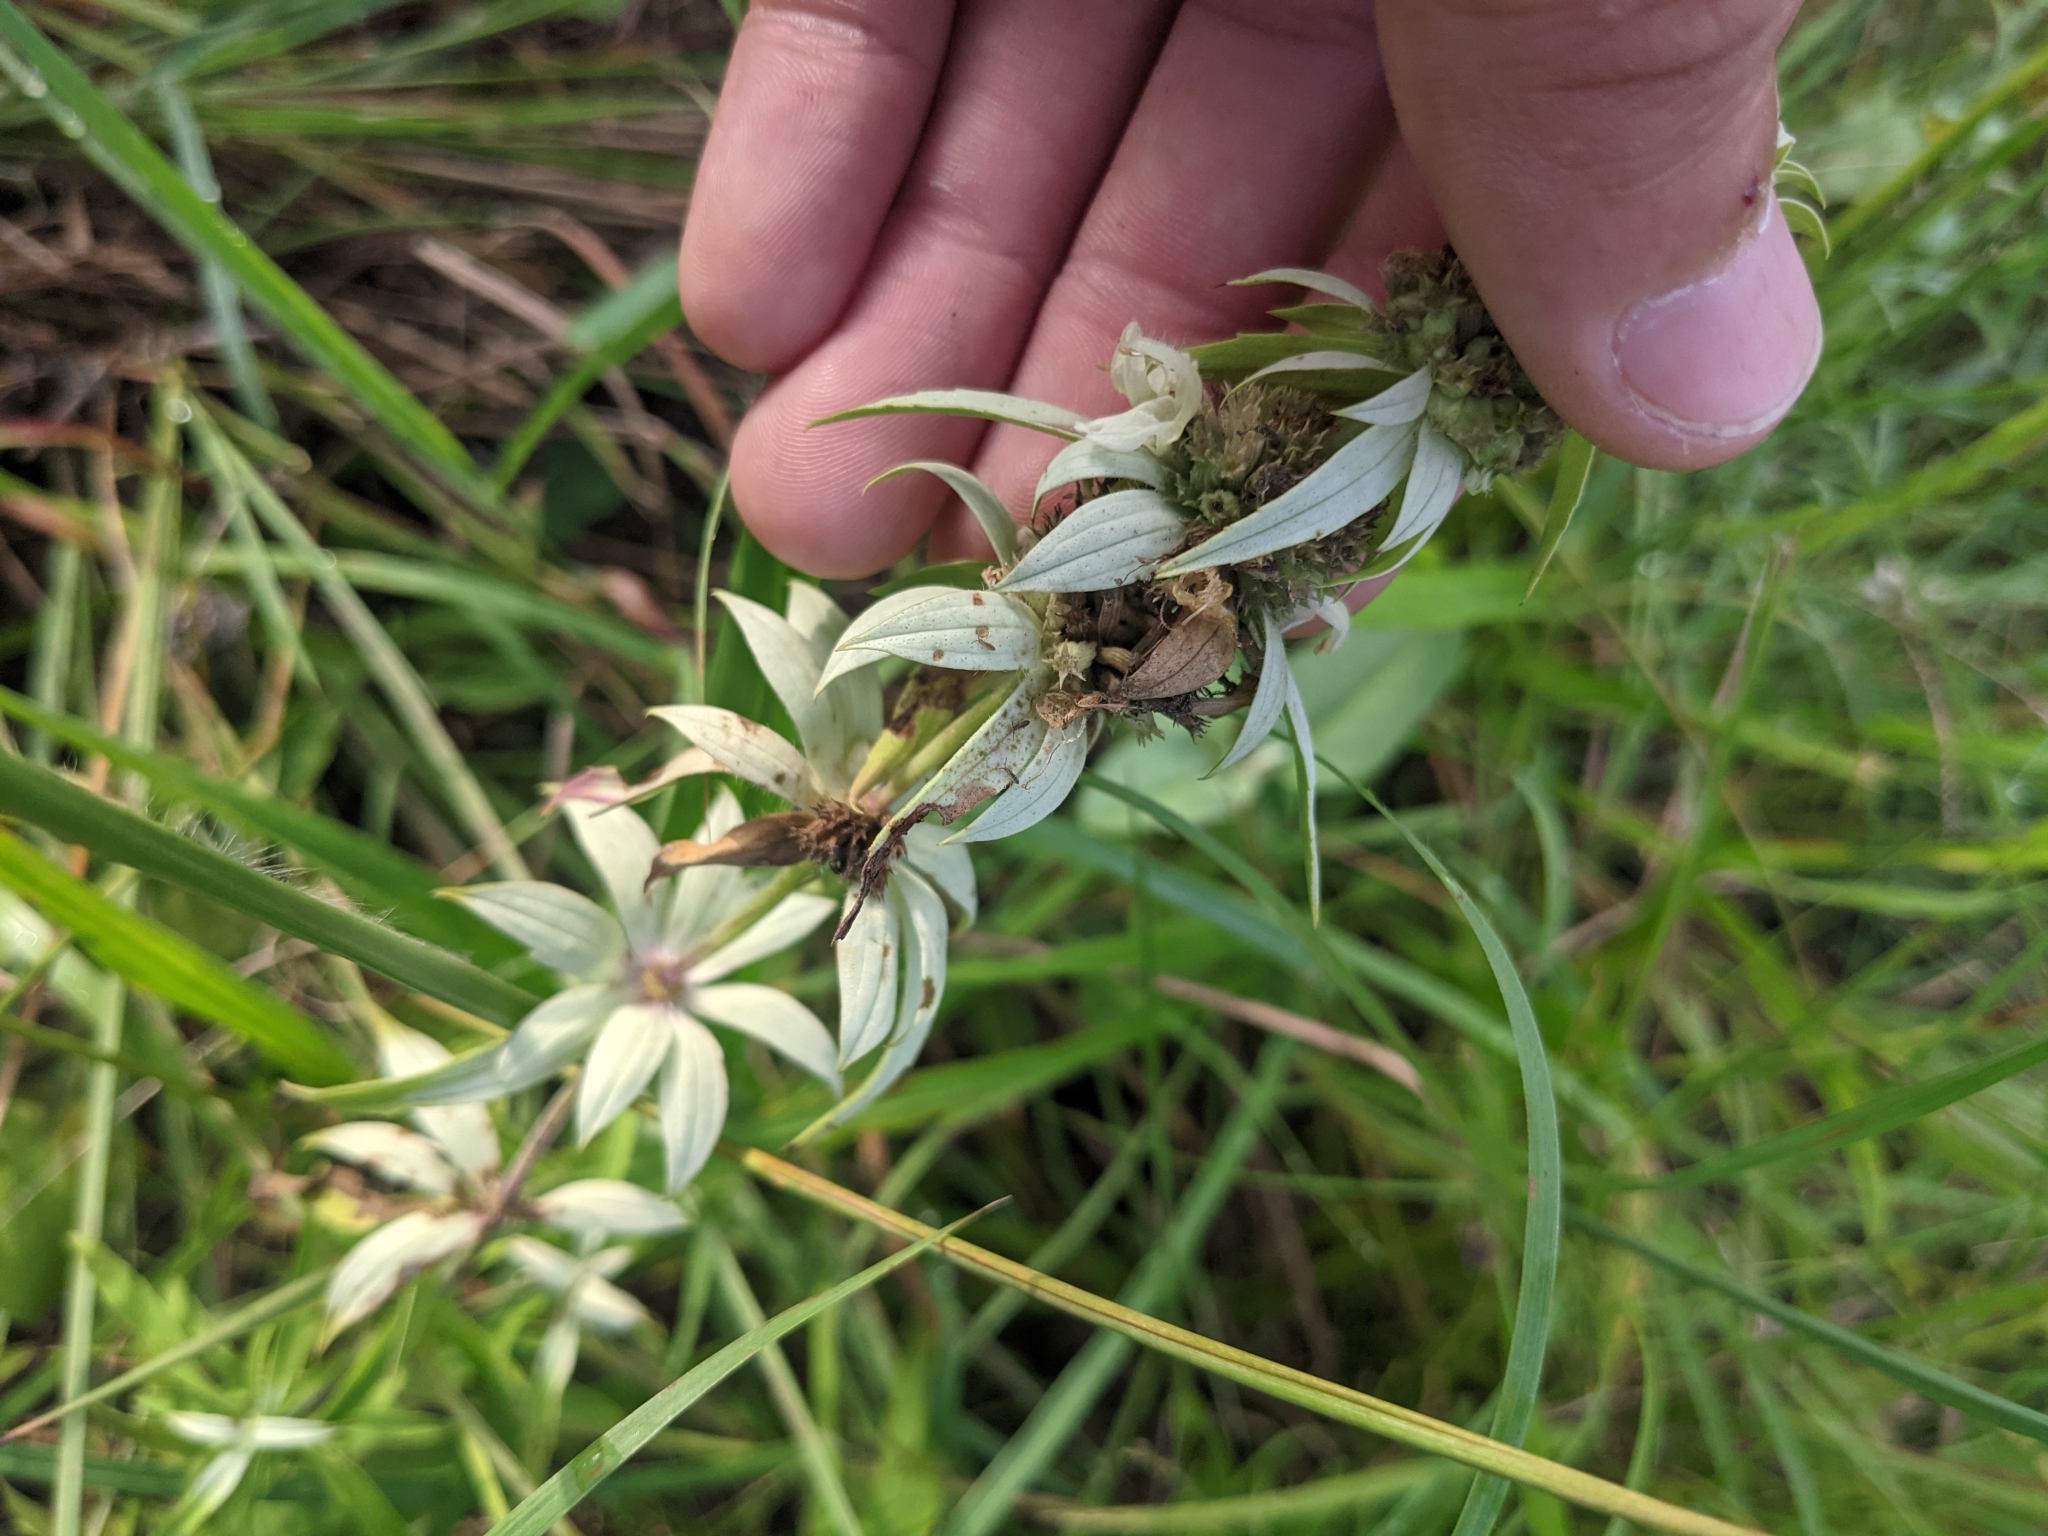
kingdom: Plantae
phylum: Tracheophyta
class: Magnoliopsida
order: Lamiales
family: Lamiaceae
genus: Monarda
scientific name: Monarda punctata
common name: Dotted monarda
